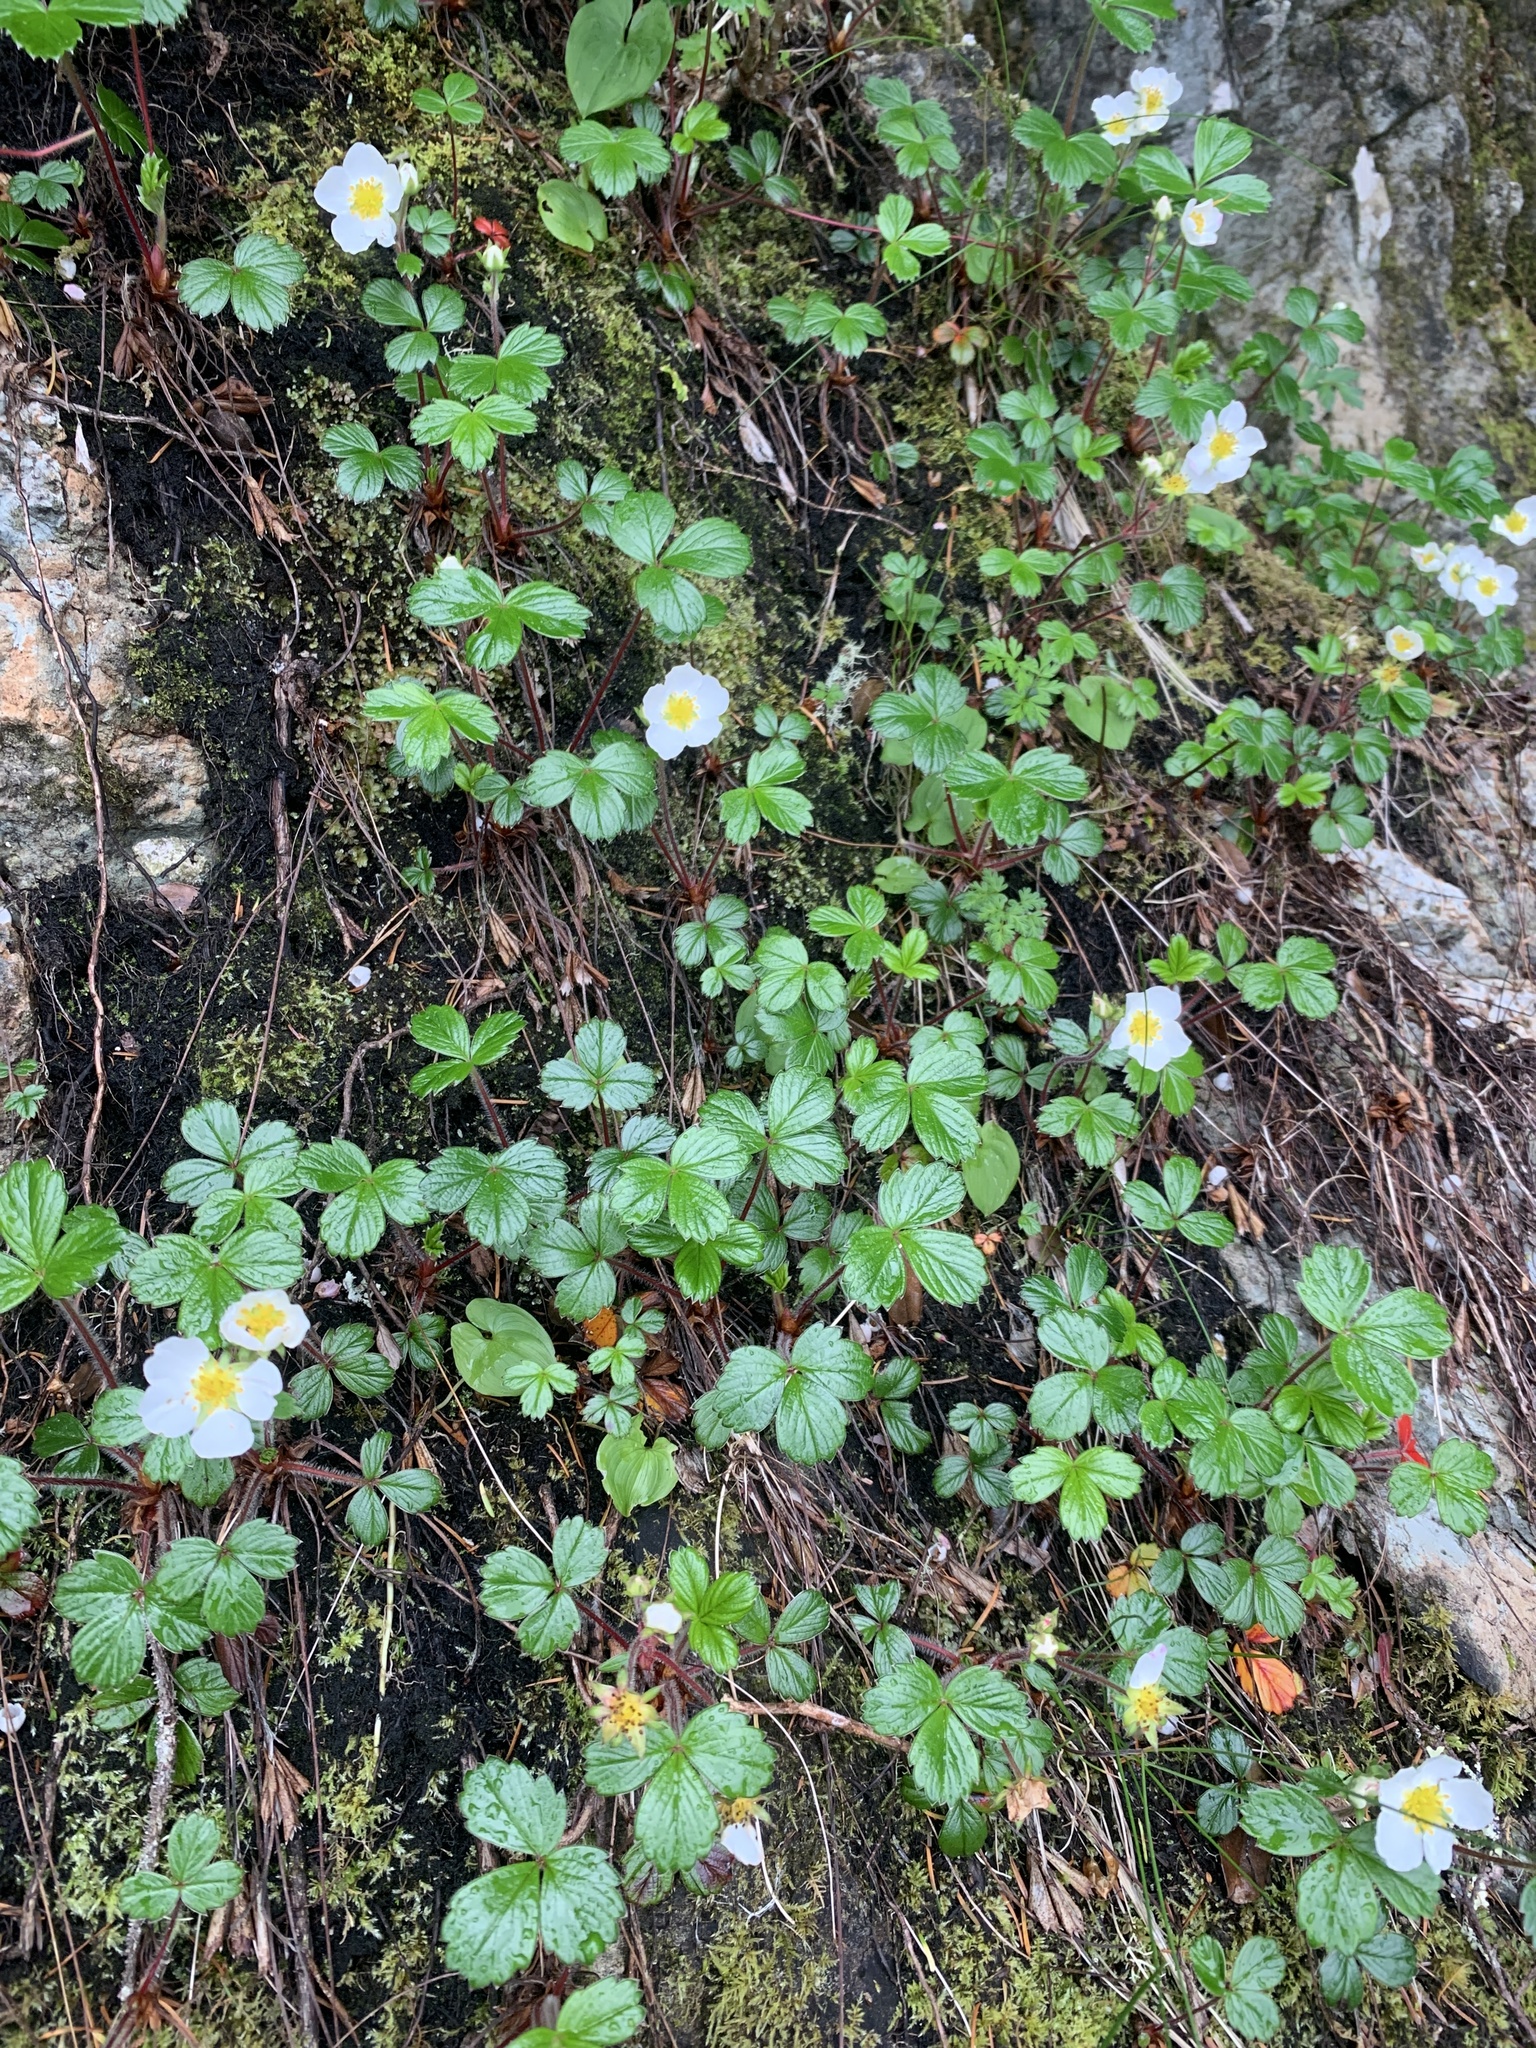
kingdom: Plantae
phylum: Tracheophyta
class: Magnoliopsida
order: Rosales
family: Rosaceae
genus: Fragaria
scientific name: Fragaria chiloensis
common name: Beach strawberry
